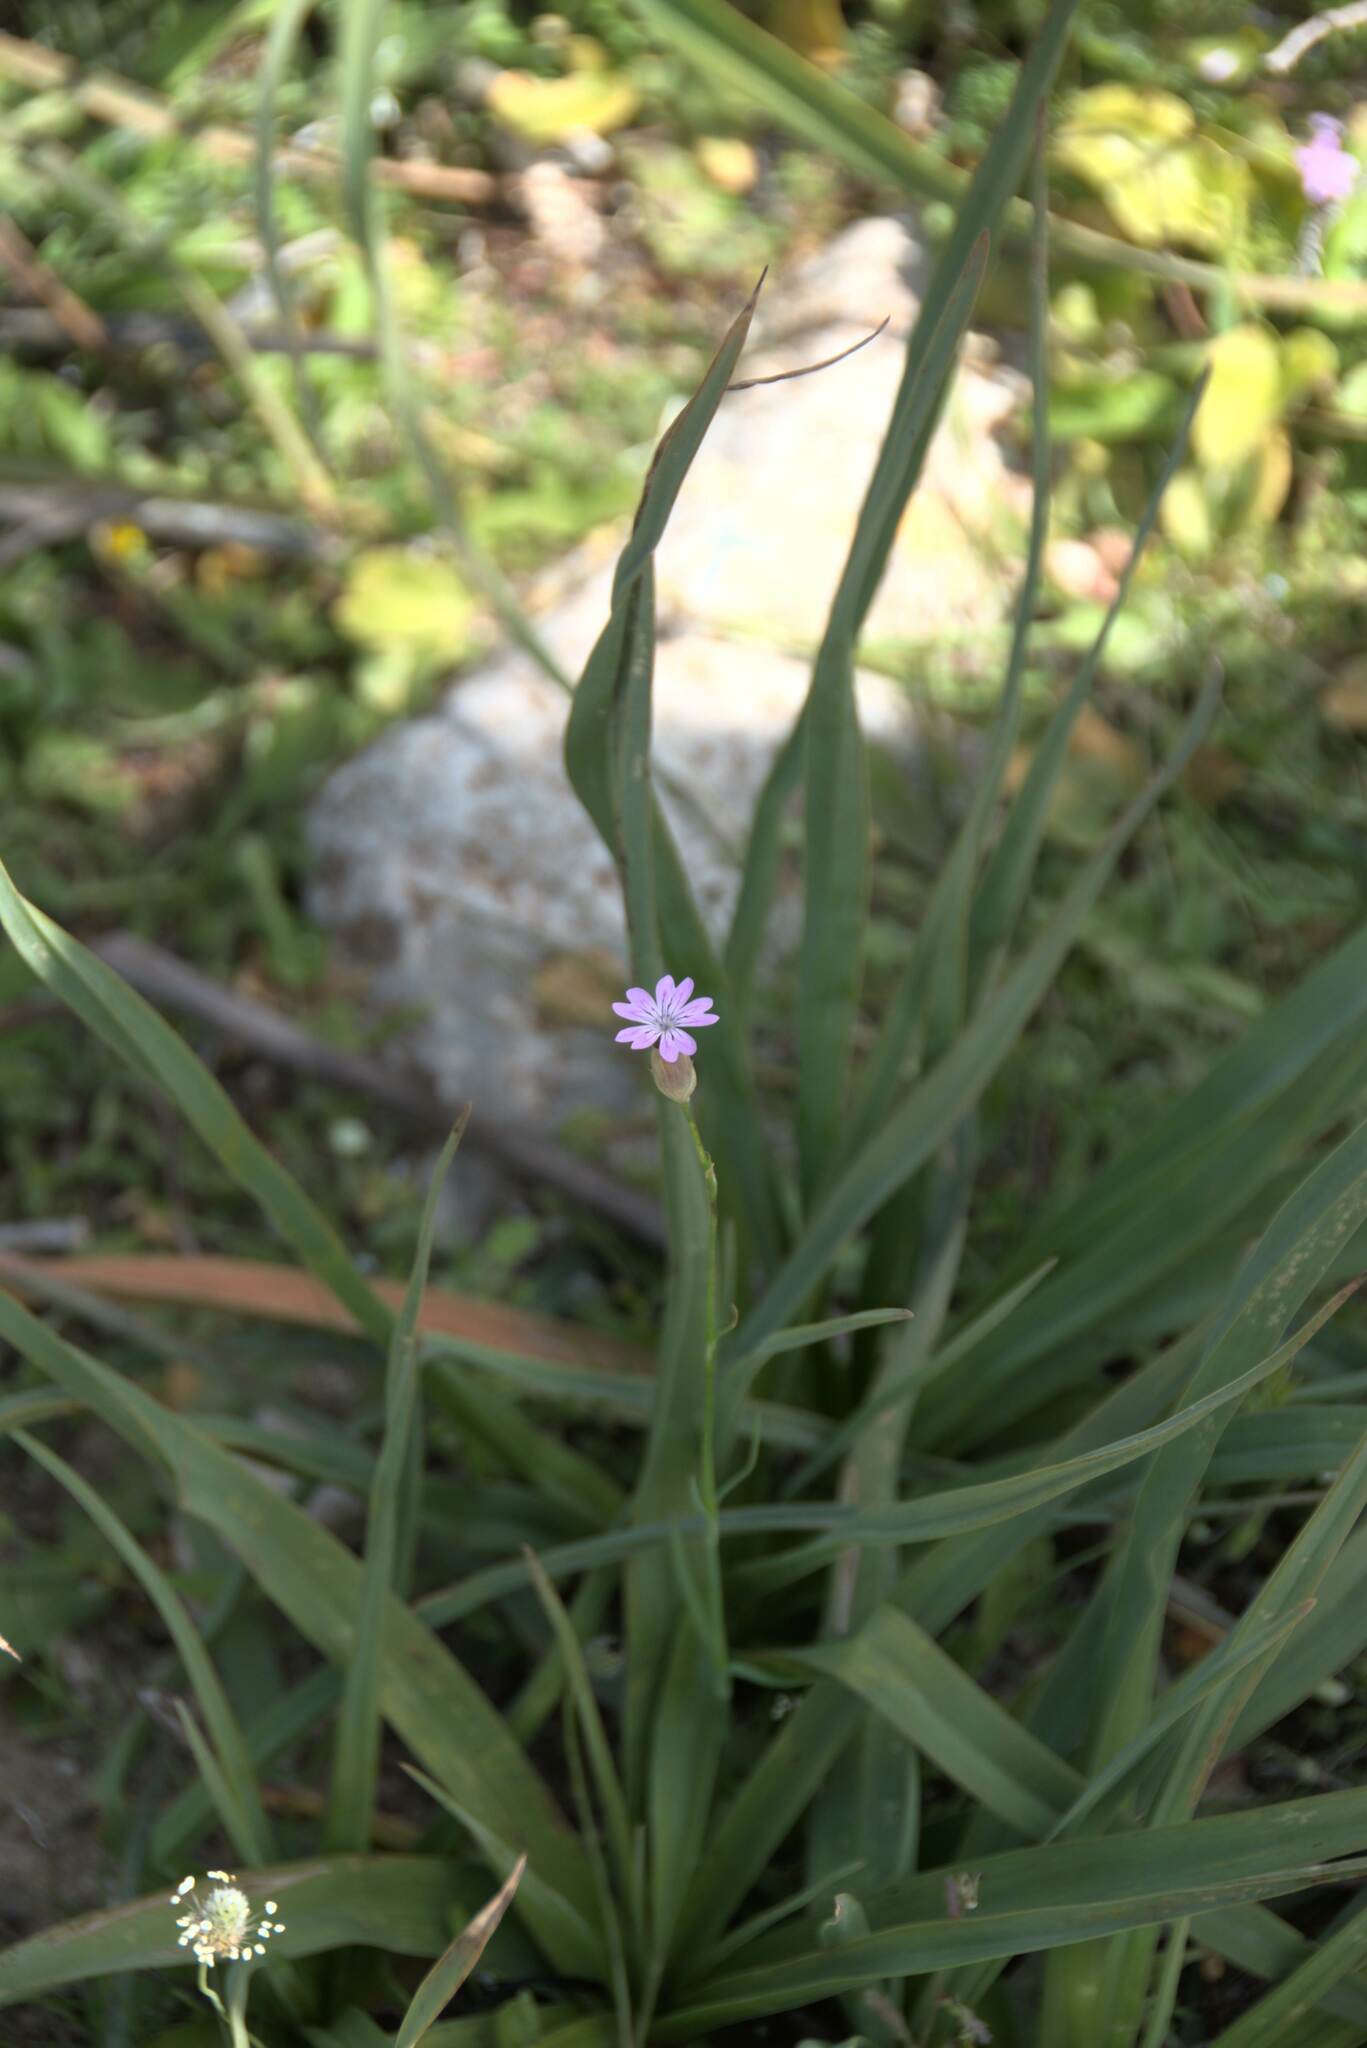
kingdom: Plantae
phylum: Tracheophyta
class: Magnoliopsida
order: Caryophyllales
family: Caryophyllaceae
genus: Petrorhagia
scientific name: Petrorhagia dubia
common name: Hairypink
